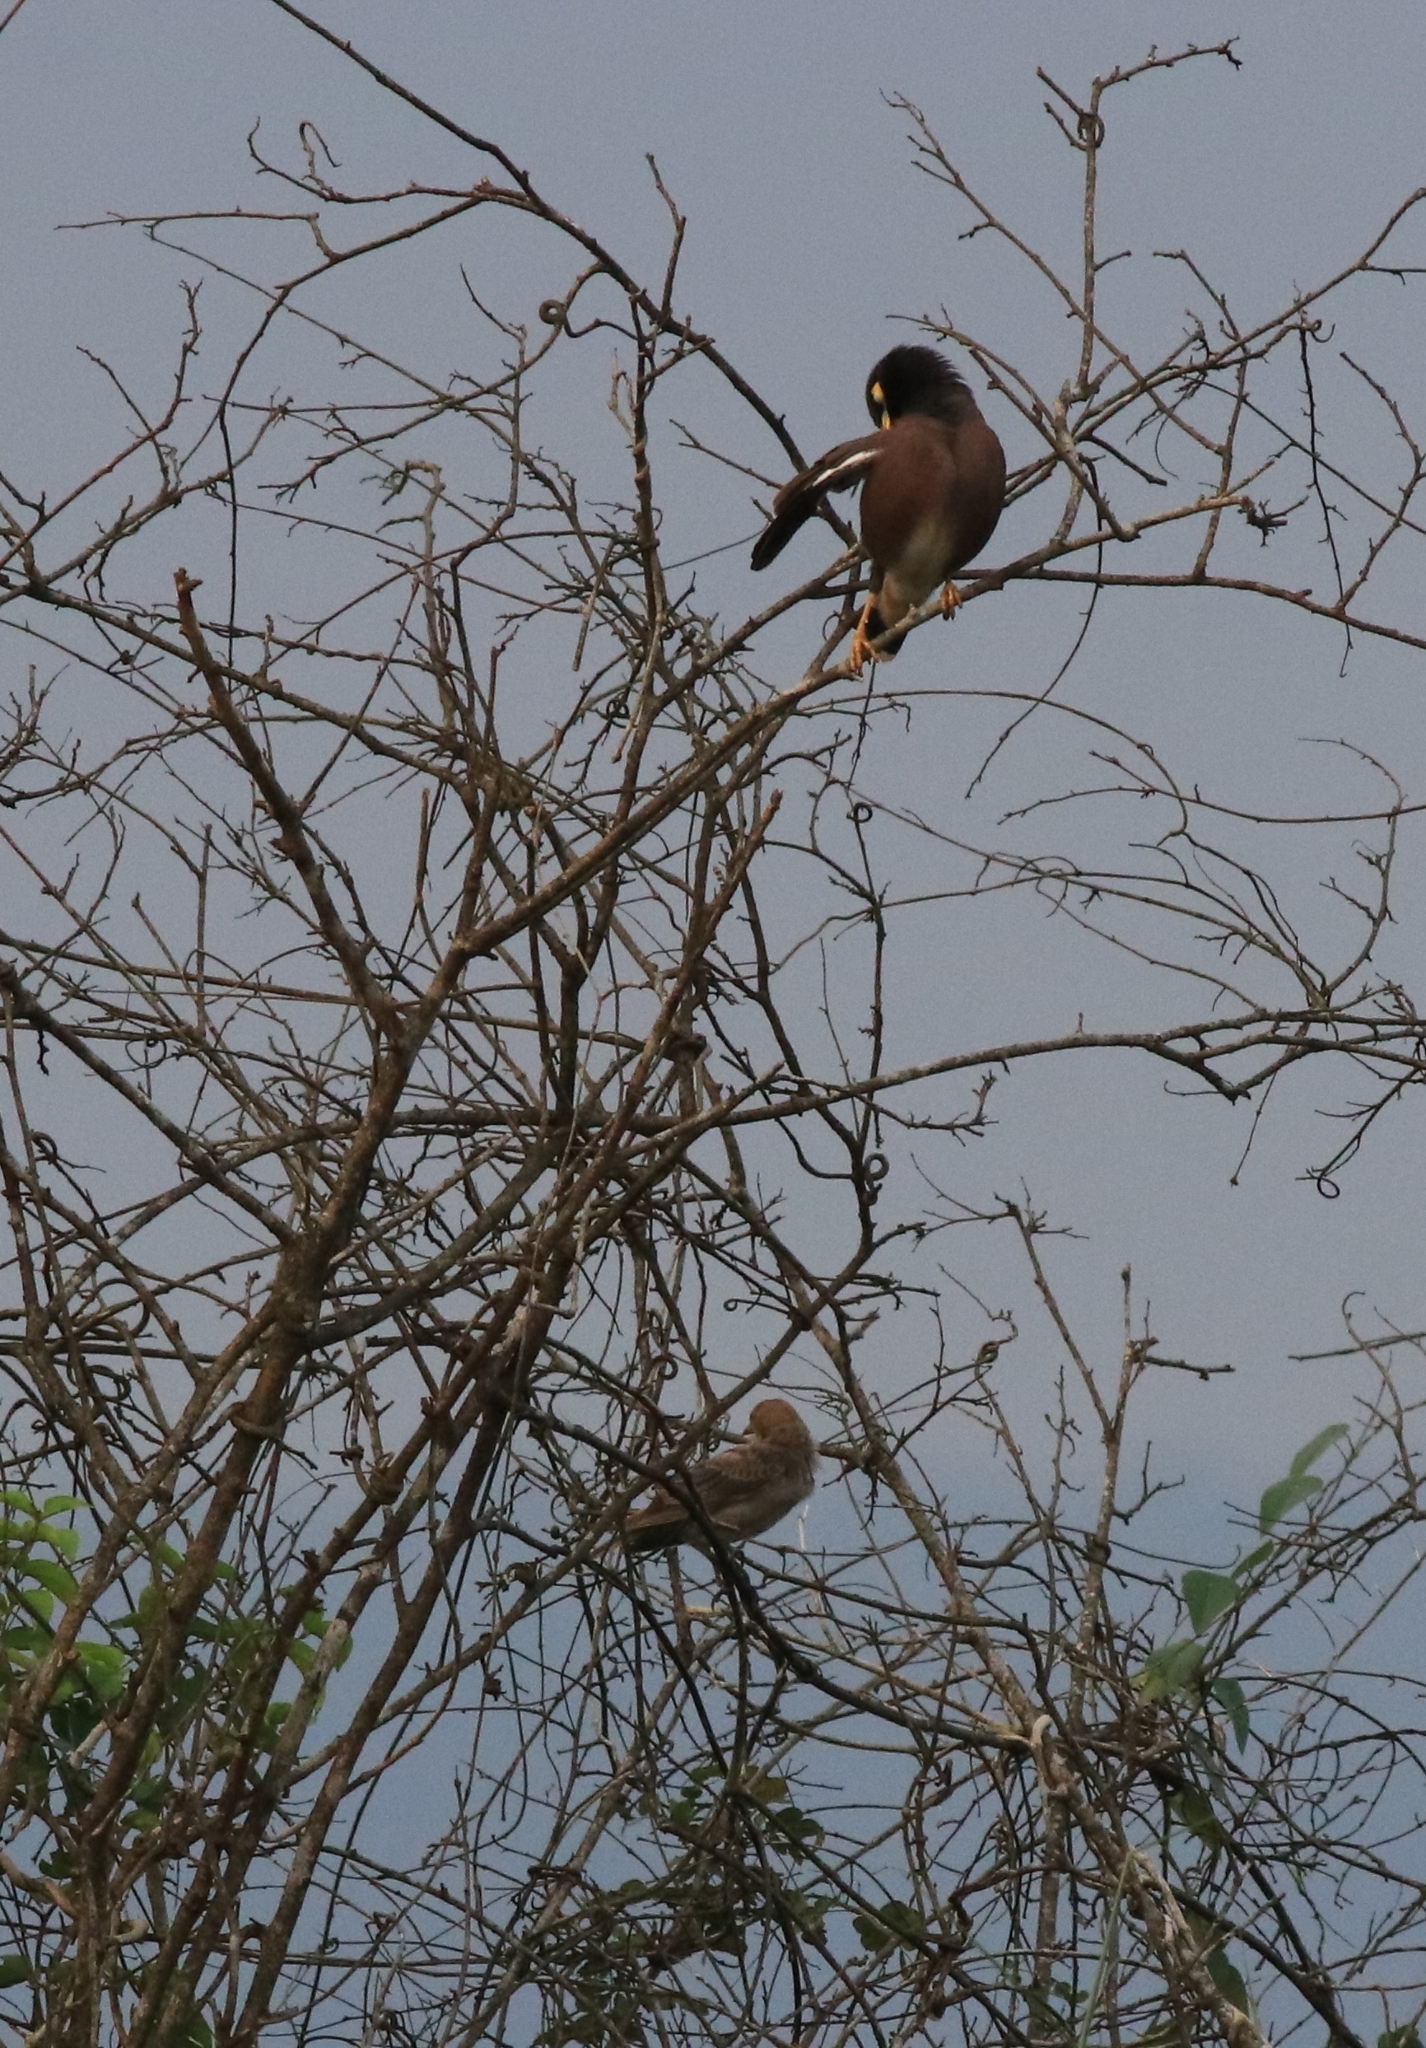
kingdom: Animalia
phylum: Chordata
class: Aves
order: Passeriformes
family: Sturnidae
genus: Acridotheres
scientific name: Acridotheres tristis
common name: Common myna
